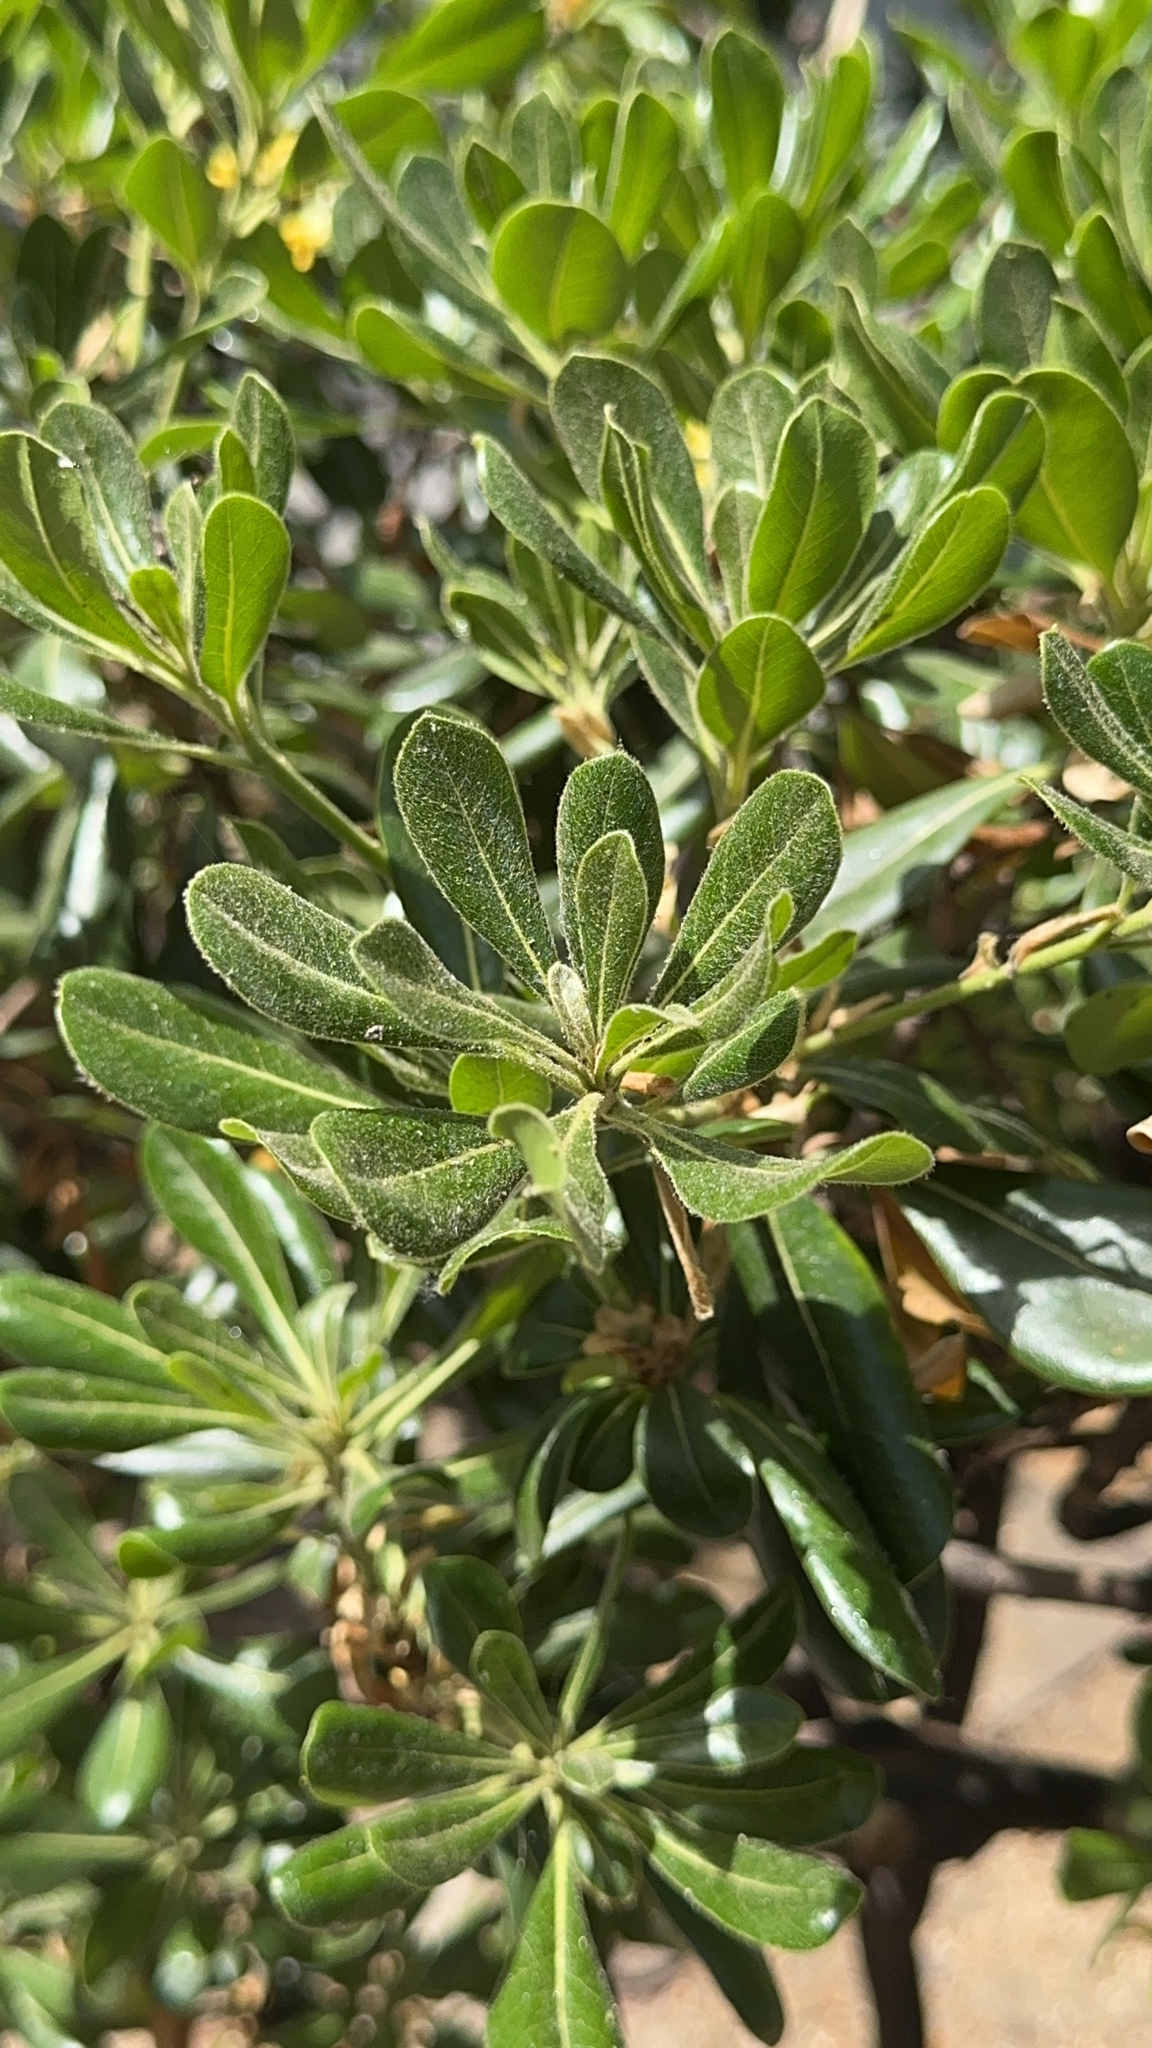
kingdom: Plantae
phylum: Tracheophyta
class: Magnoliopsida
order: Apiales
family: Pittosporaceae
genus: Pittosporum
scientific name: Pittosporum tobira
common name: Japanese cheesewood
